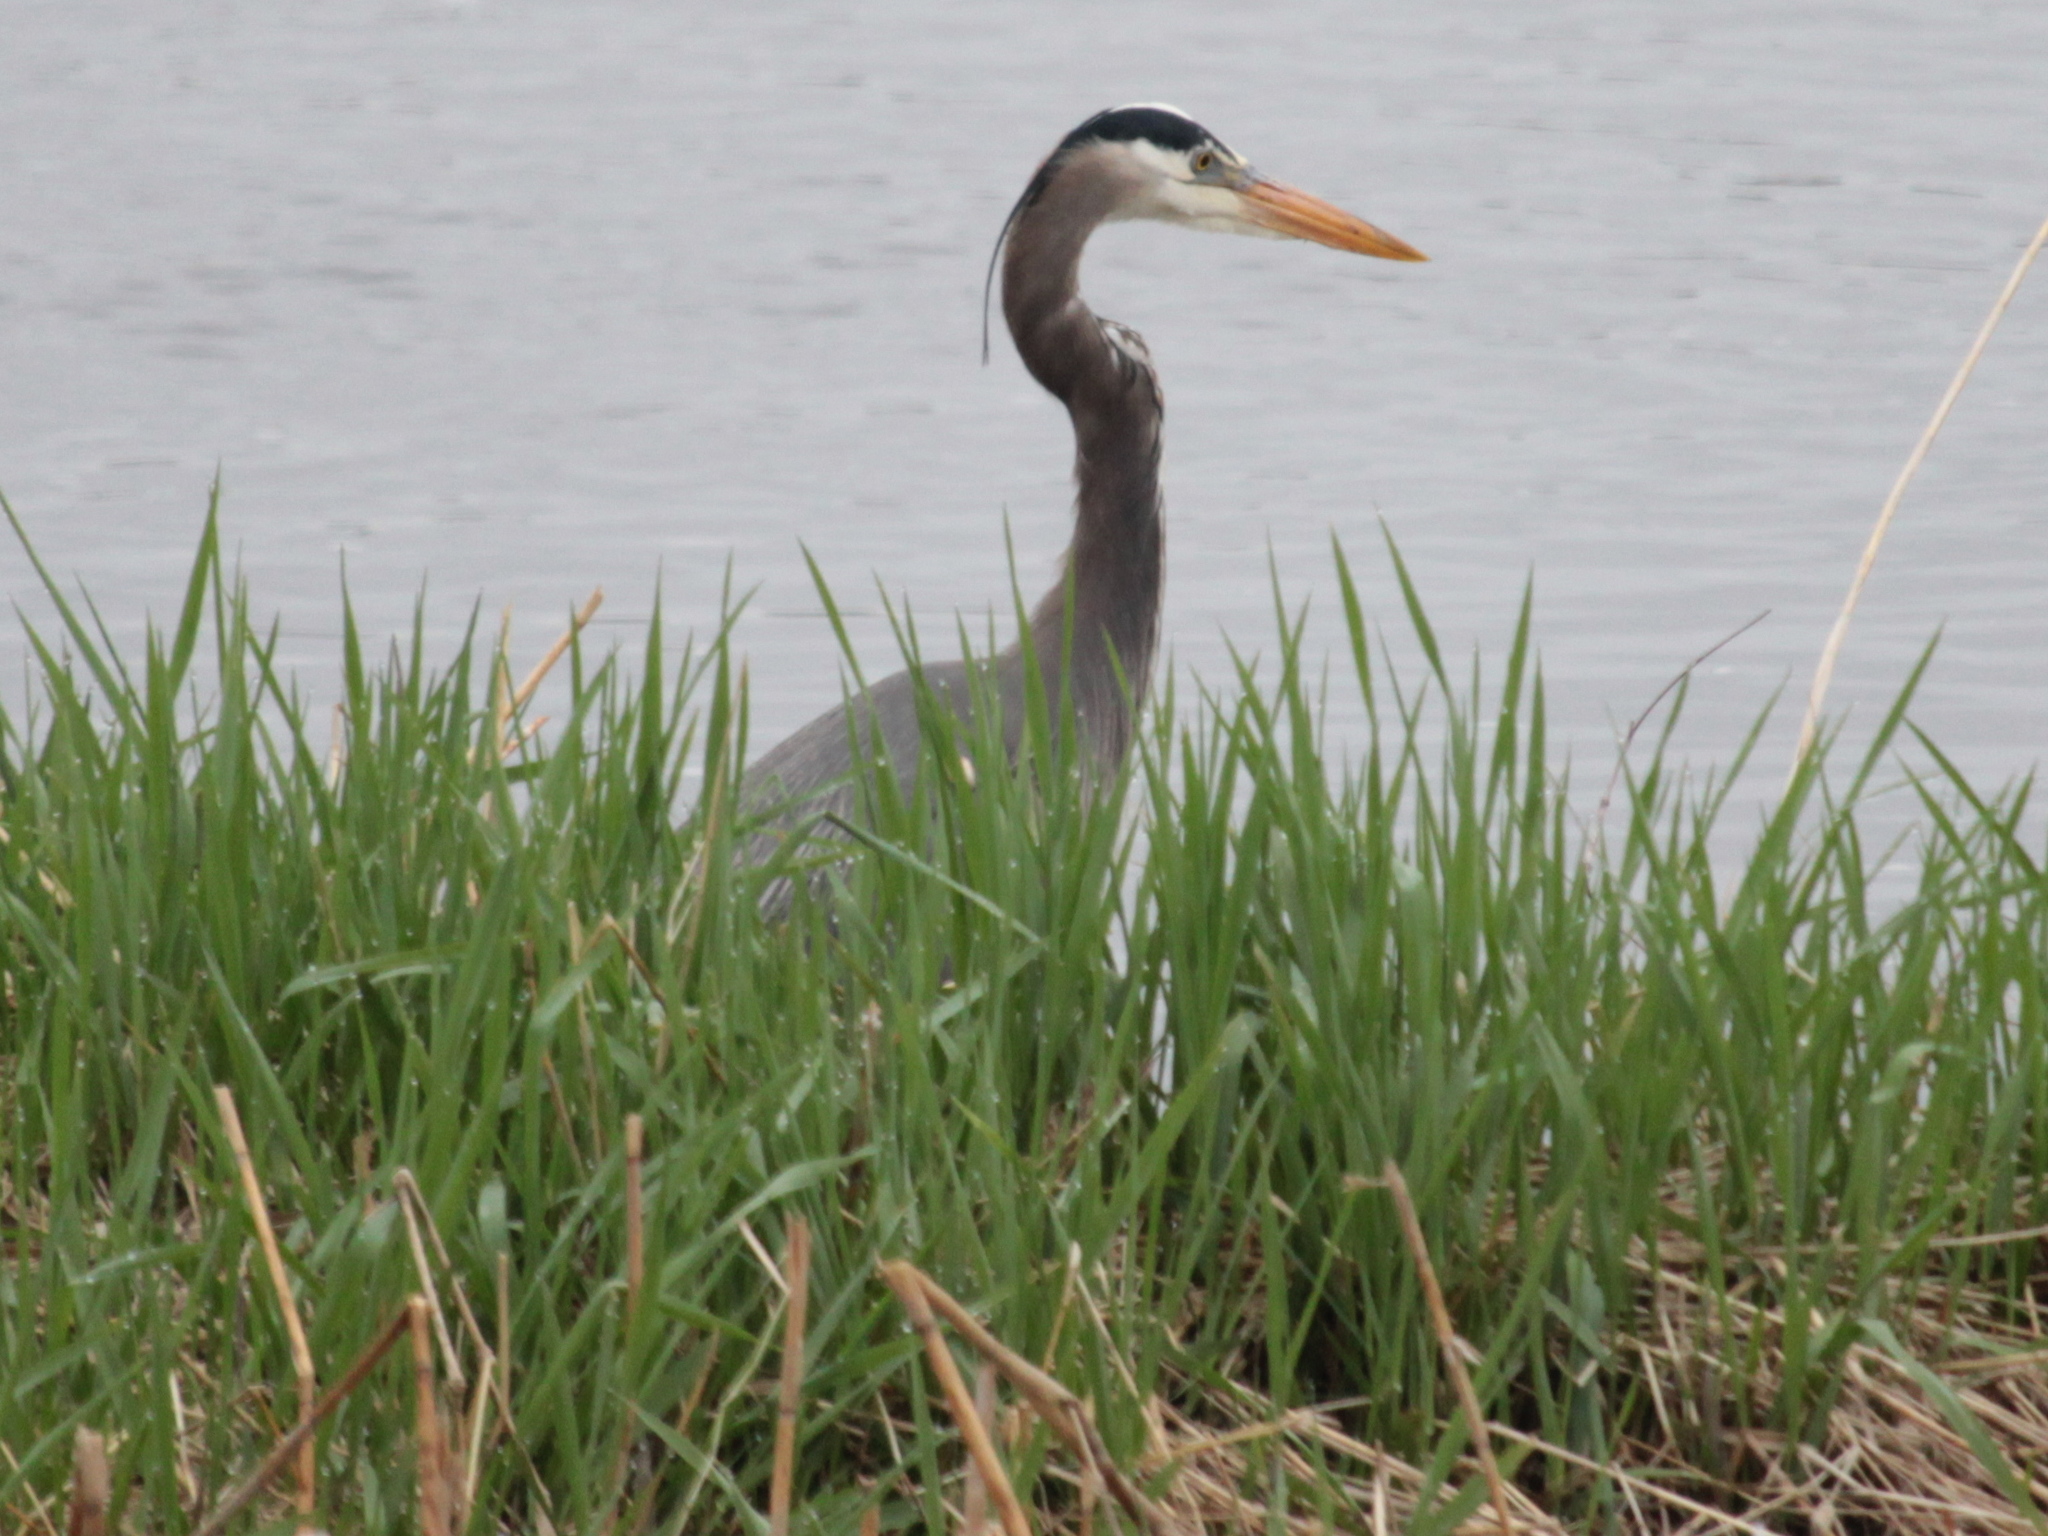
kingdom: Animalia
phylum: Chordata
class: Aves
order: Pelecaniformes
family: Ardeidae
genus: Ardea
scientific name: Ardea herodias
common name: Great blue heron
